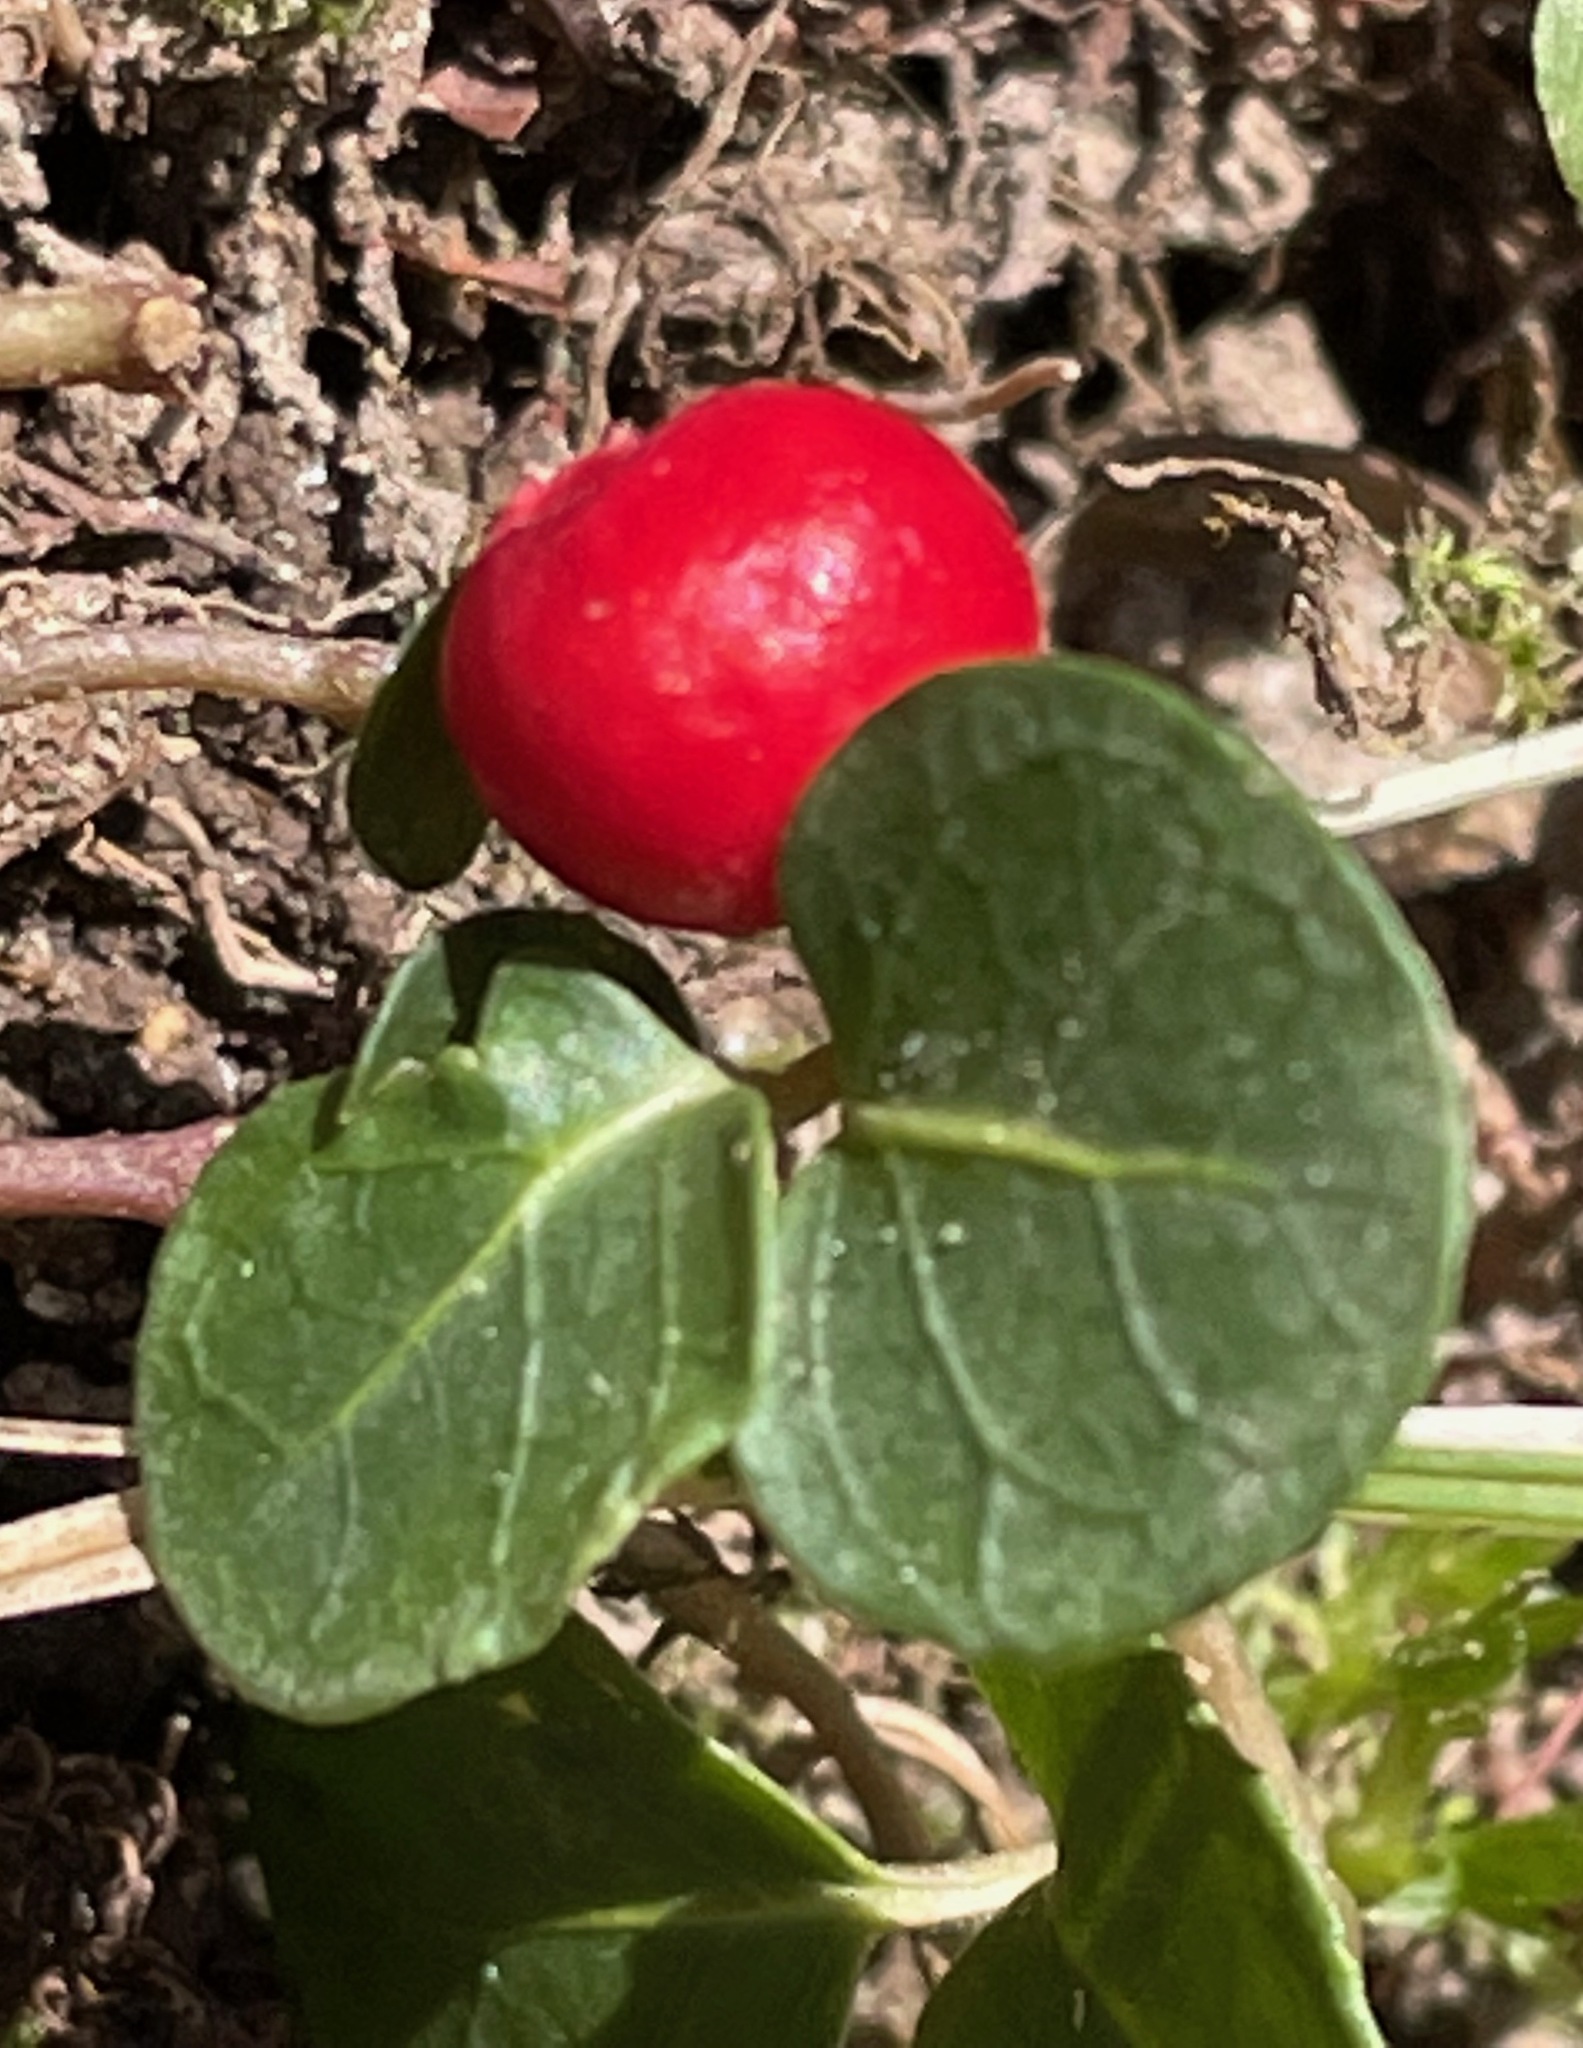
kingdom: Plantae
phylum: Tracheophyta
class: Magnoliopsida
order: Gentianales
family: Rubiaceae
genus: Mitchella
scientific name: Mitchella repens
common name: Partridge-berry
